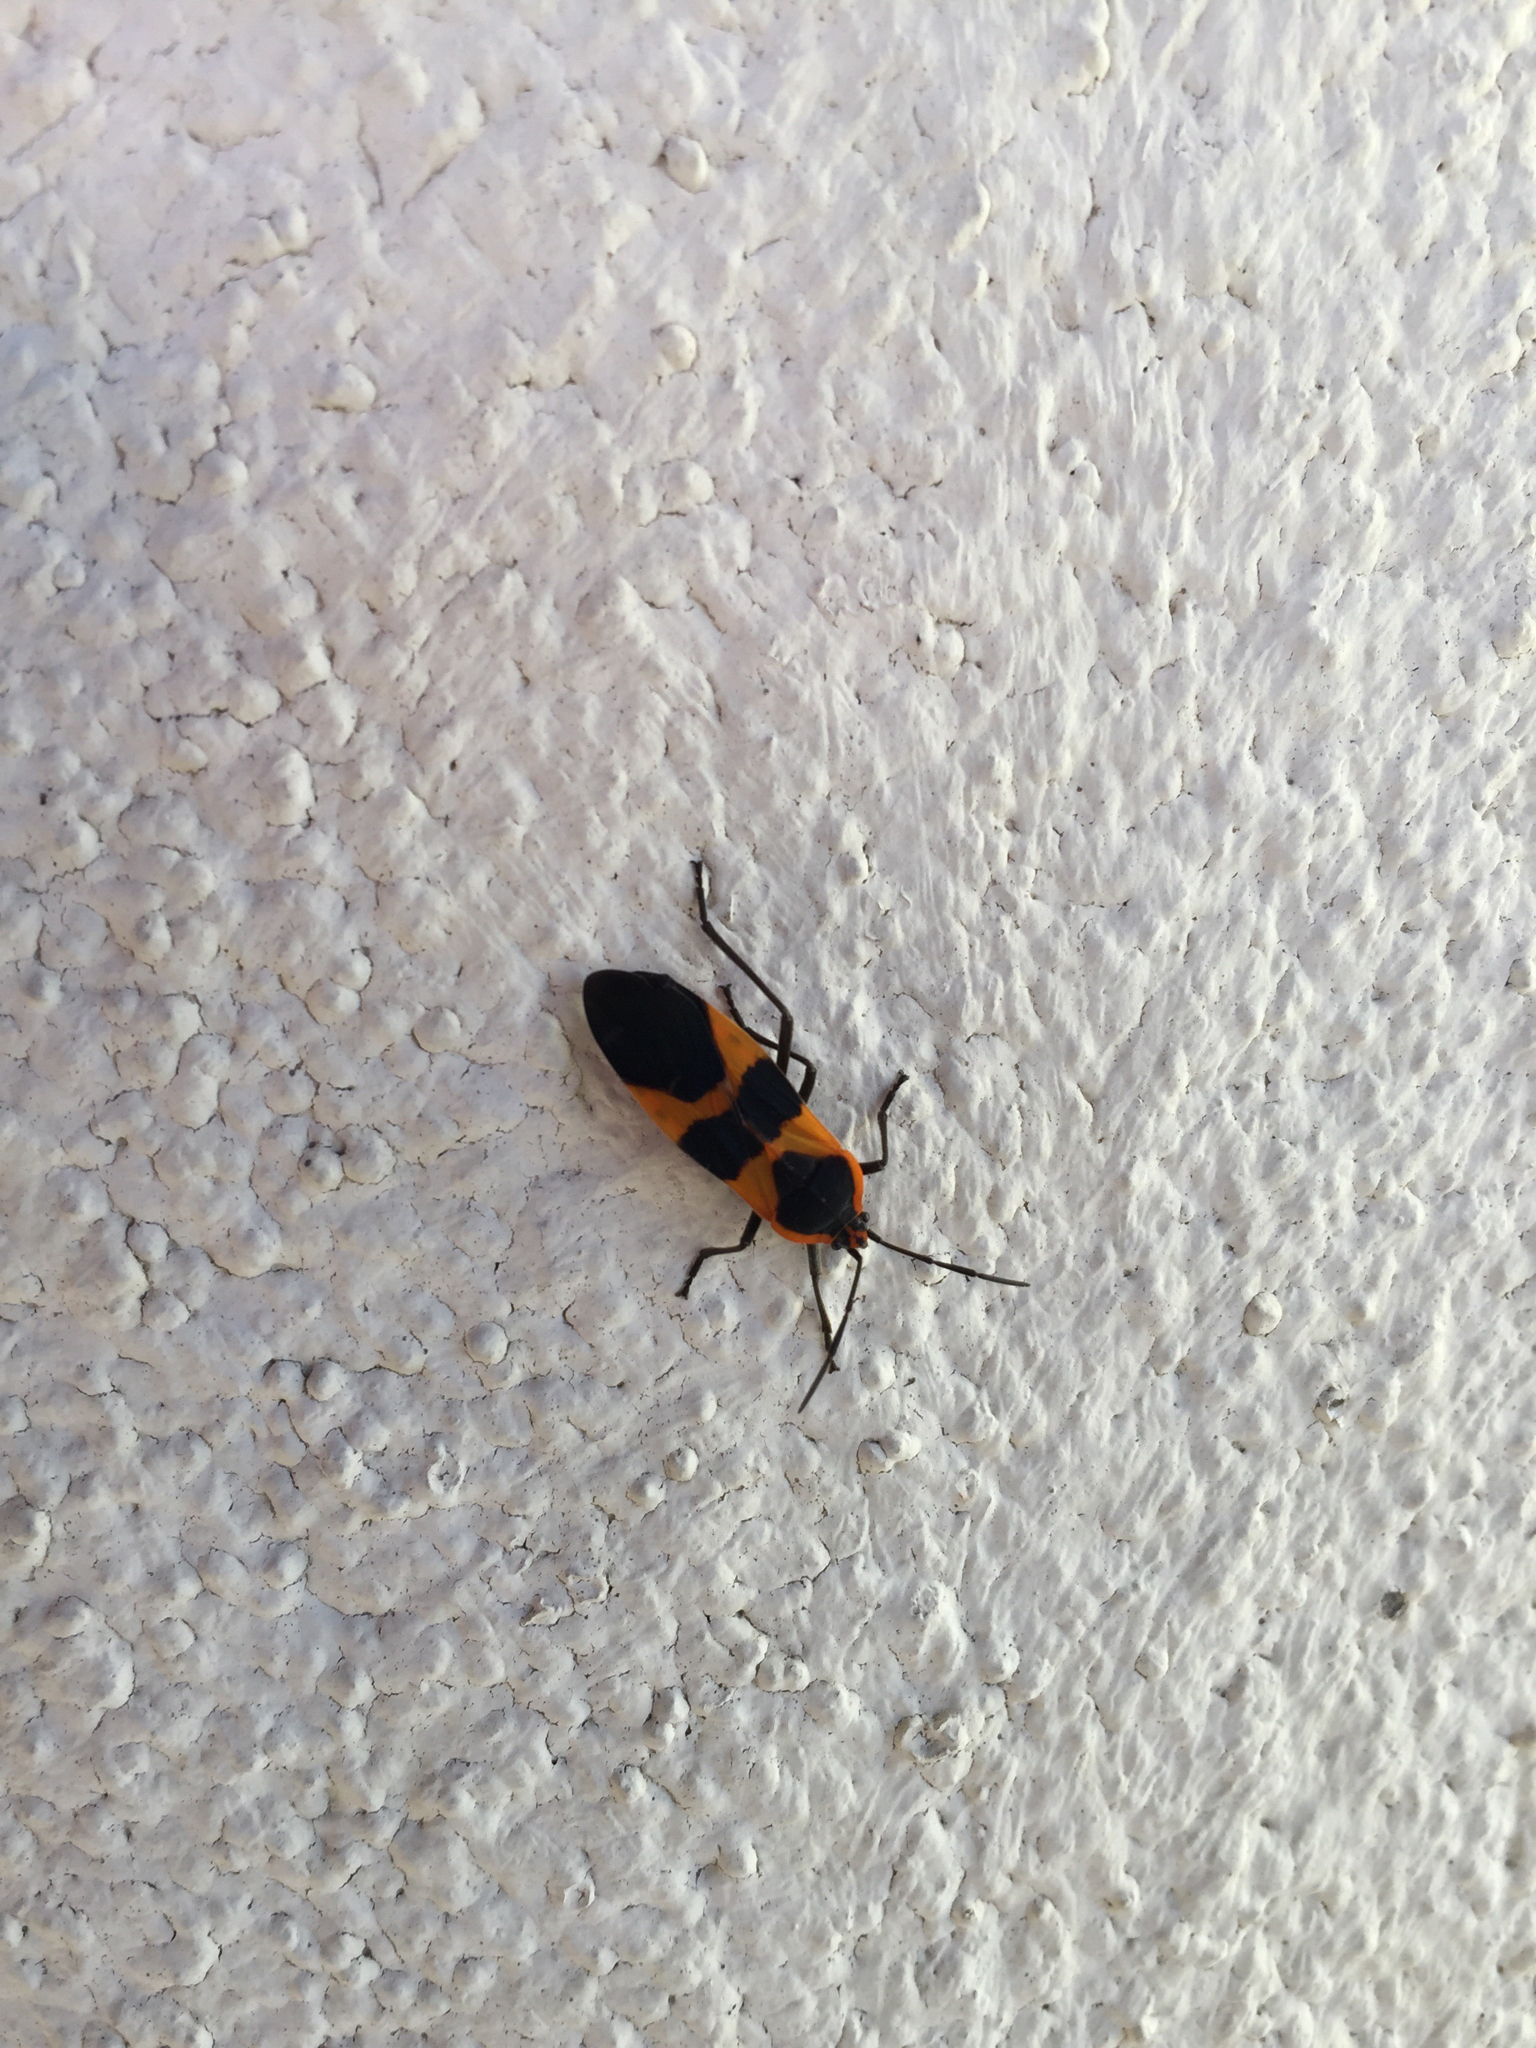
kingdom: Animalia
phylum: Arthropoda
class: Insecta
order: Hemiptera
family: Lygaeidae
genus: Oncopeltus
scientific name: Oncopeltus fasciatus
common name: Large milkweed bug
